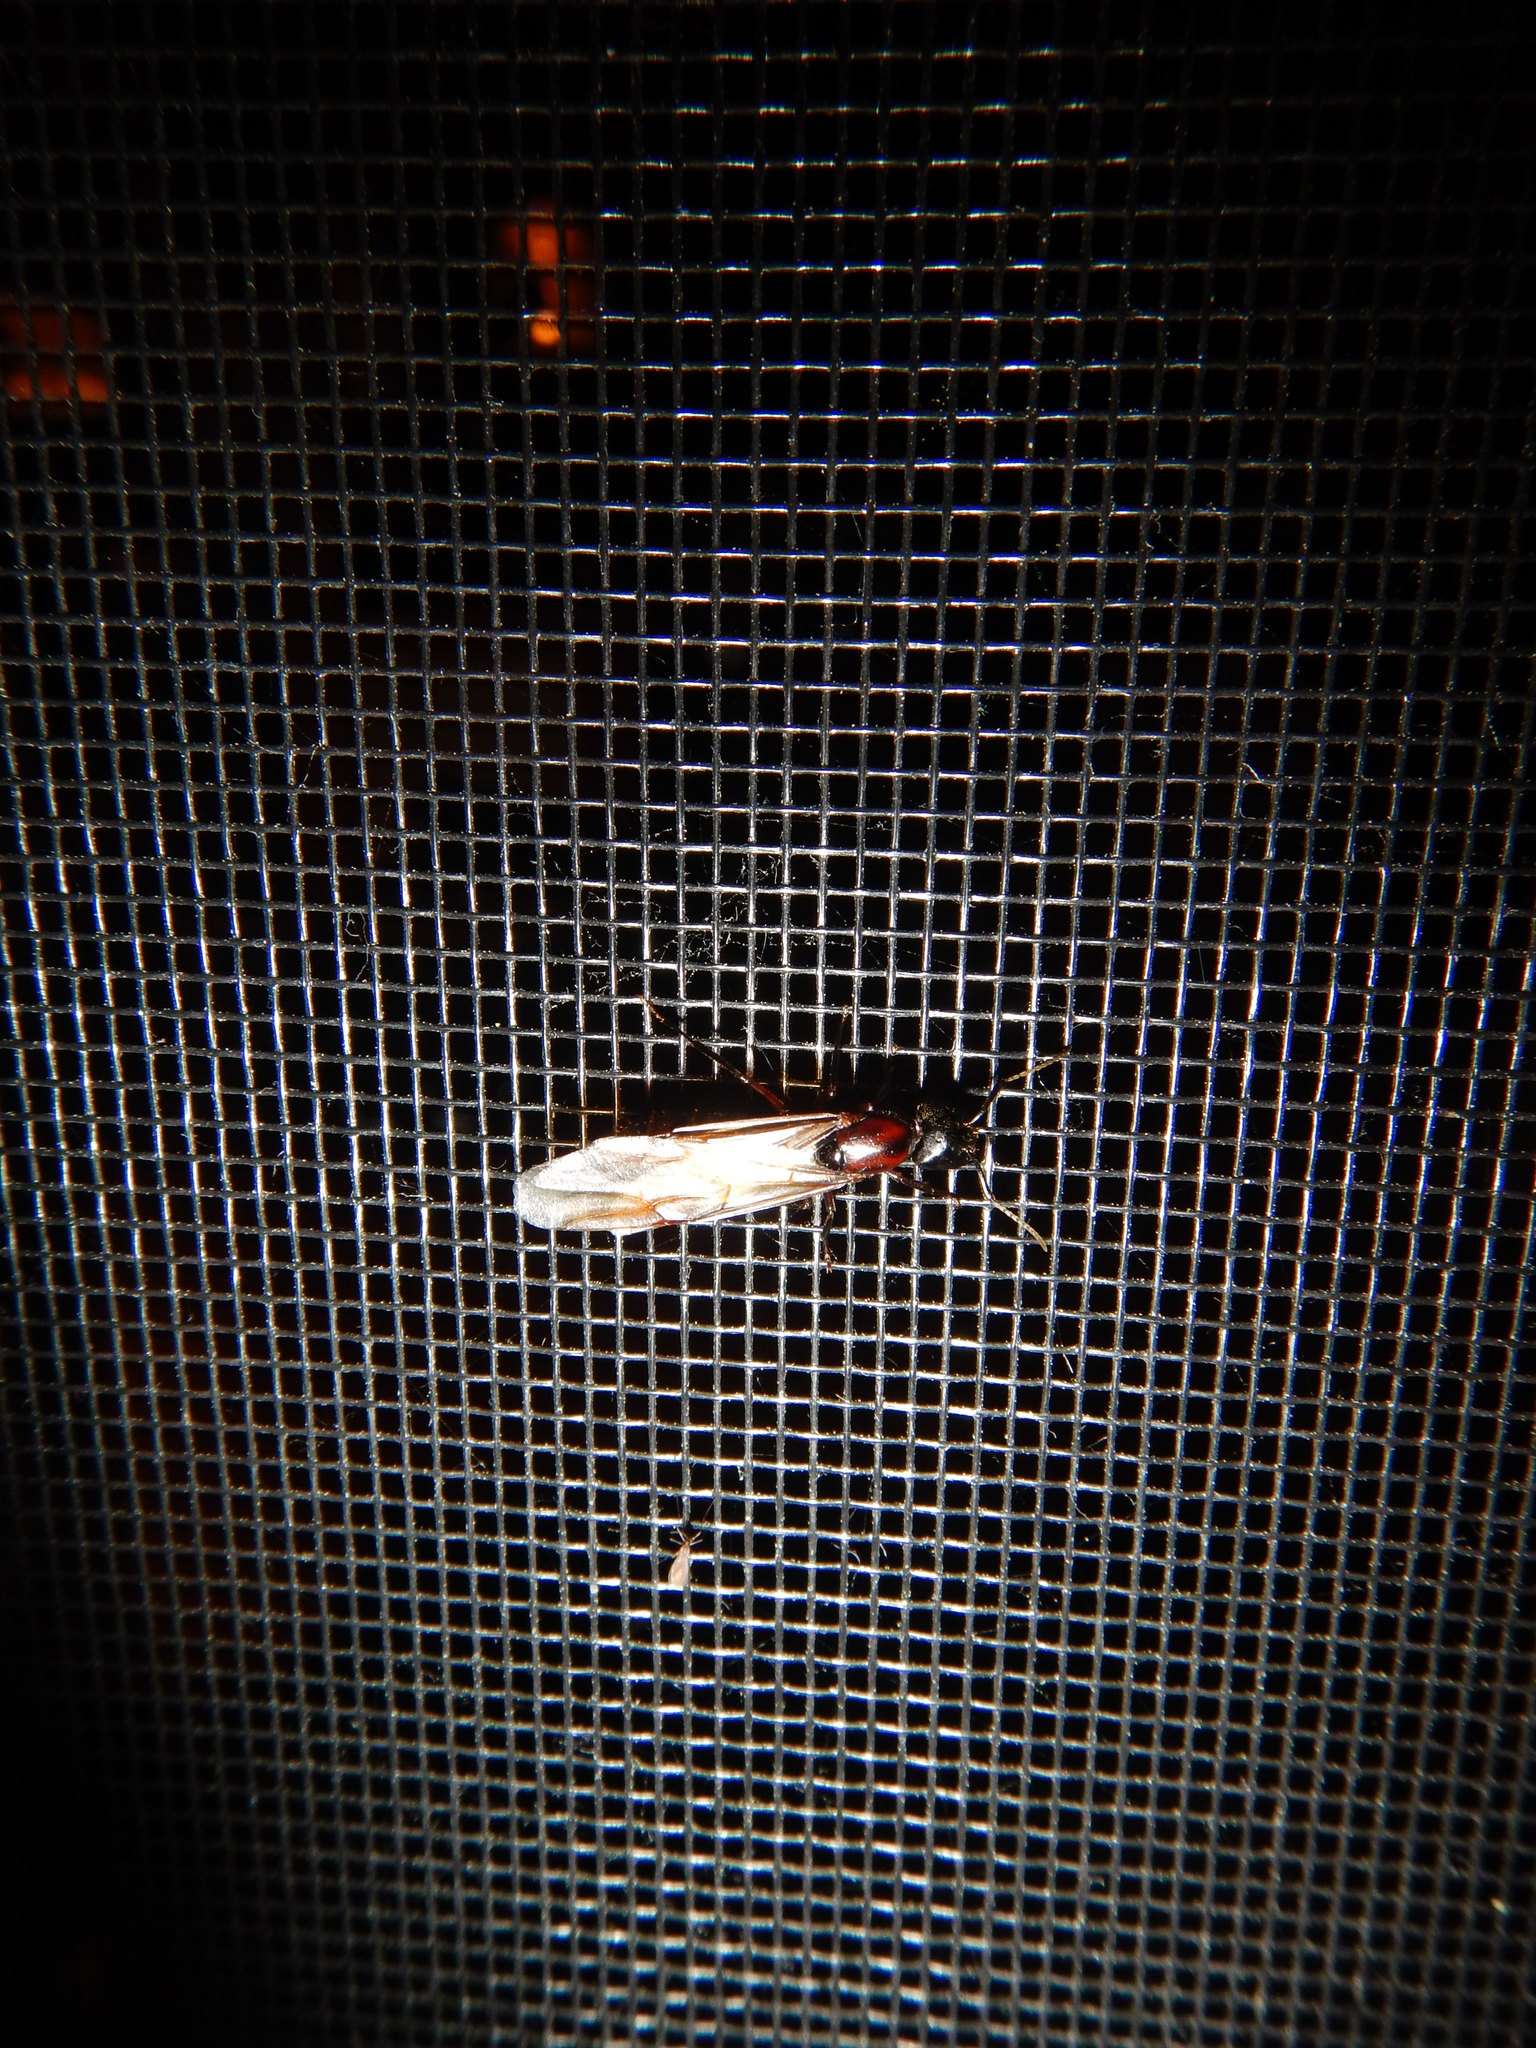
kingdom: Animalia
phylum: Arthropoda
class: Insecta
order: Hymenoptera
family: Formicidae
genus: Camponotus
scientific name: Camponotus novaeboracensis
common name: New york carpenter ant
